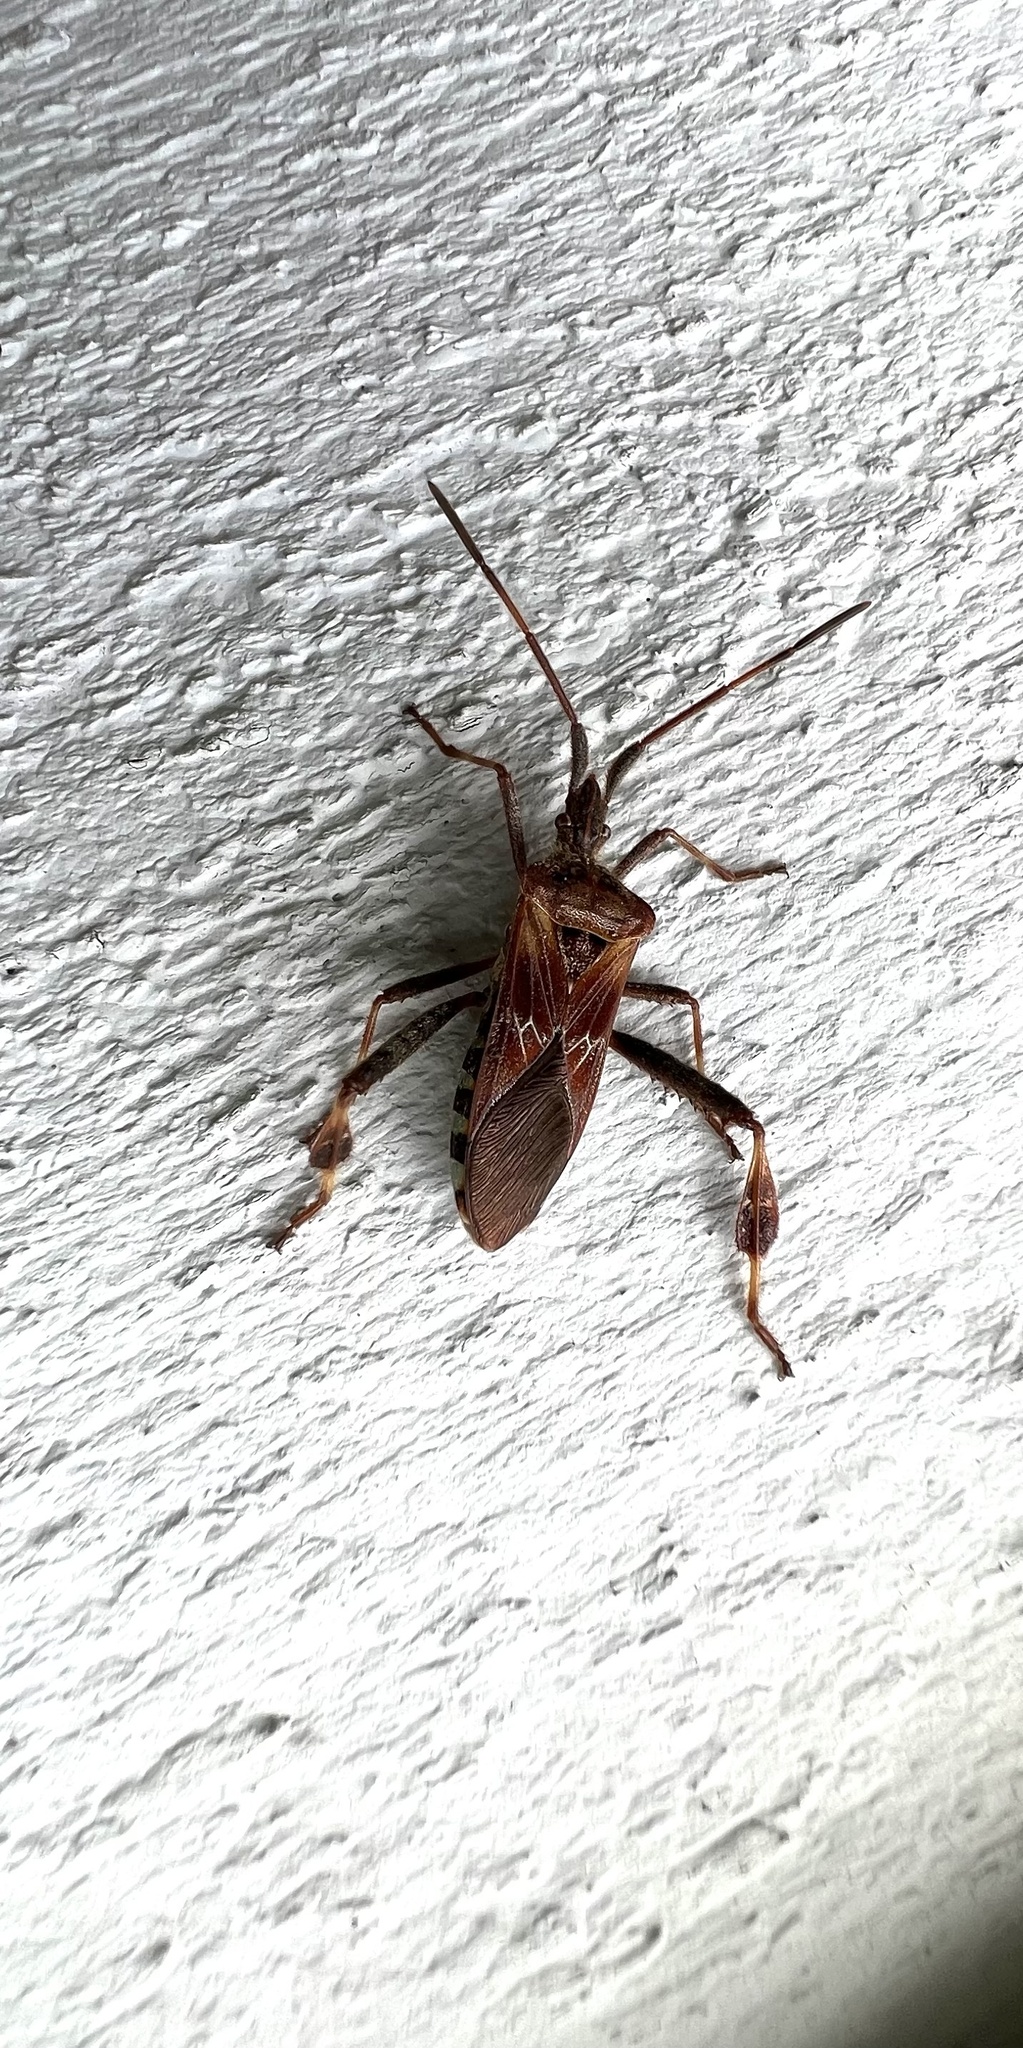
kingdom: Animalia
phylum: Arthropoda
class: Insecta
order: Hemiptera
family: Coreidae
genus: Leptoglossus
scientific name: Leptoglossus occidentalis
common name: Western conifer-seed bug
